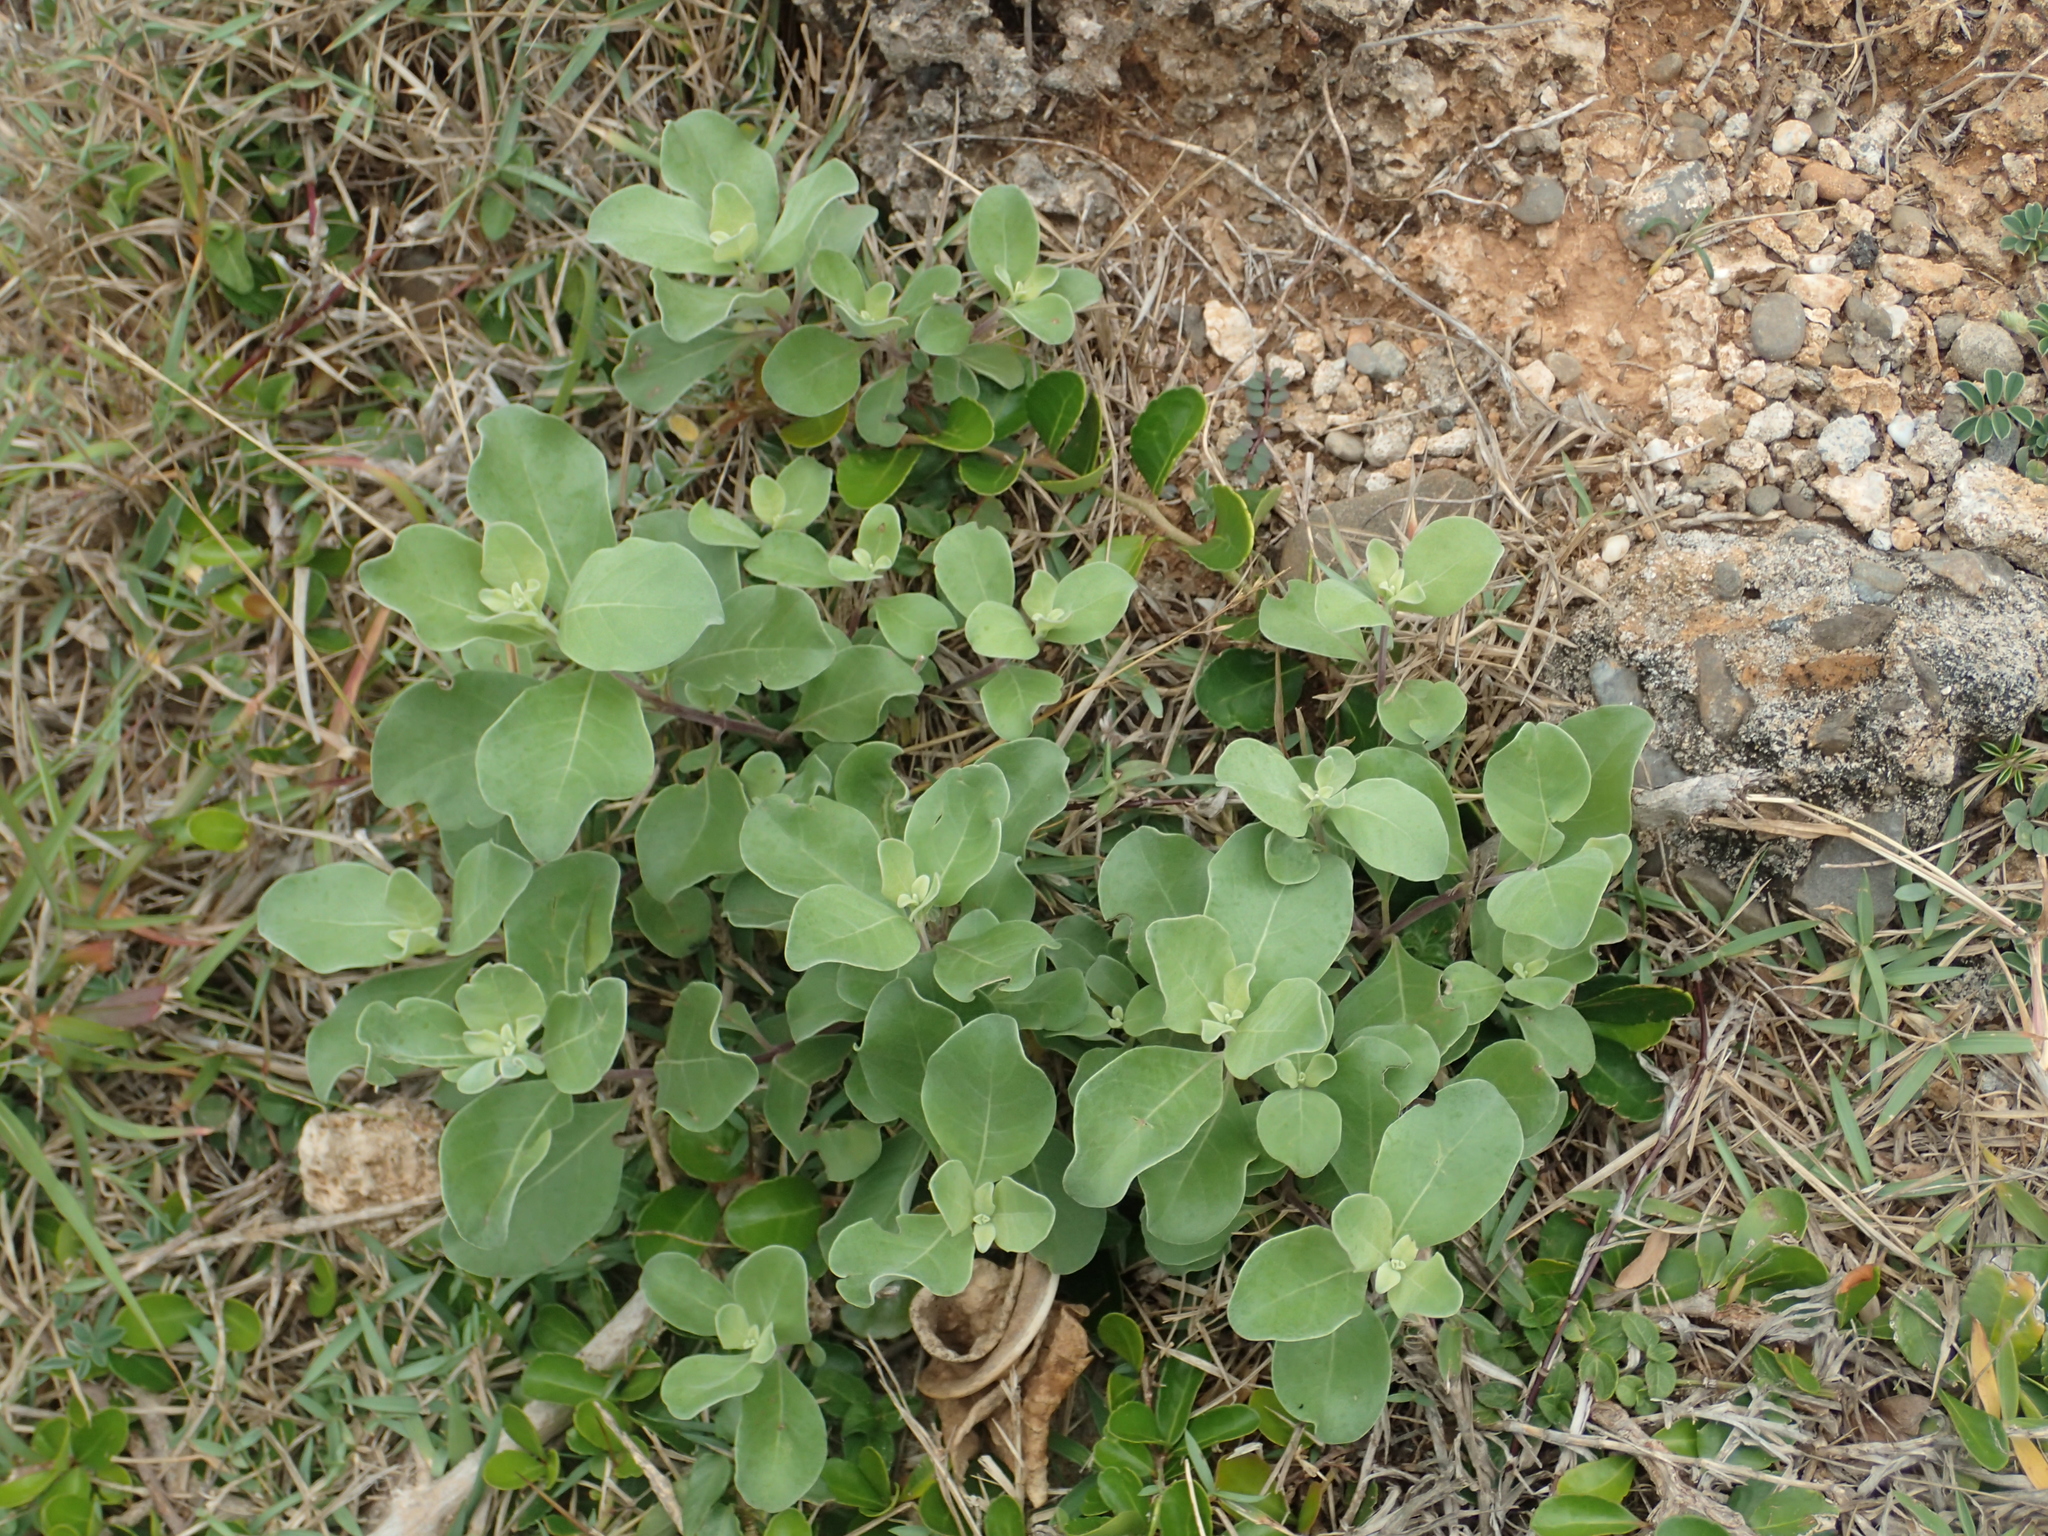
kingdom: Plantae
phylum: Tracheophyta
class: Magnoliopsida
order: Lamiales
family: Lamiaceae
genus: Vitex
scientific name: Vitex rotundifolia
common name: Beach vitex
